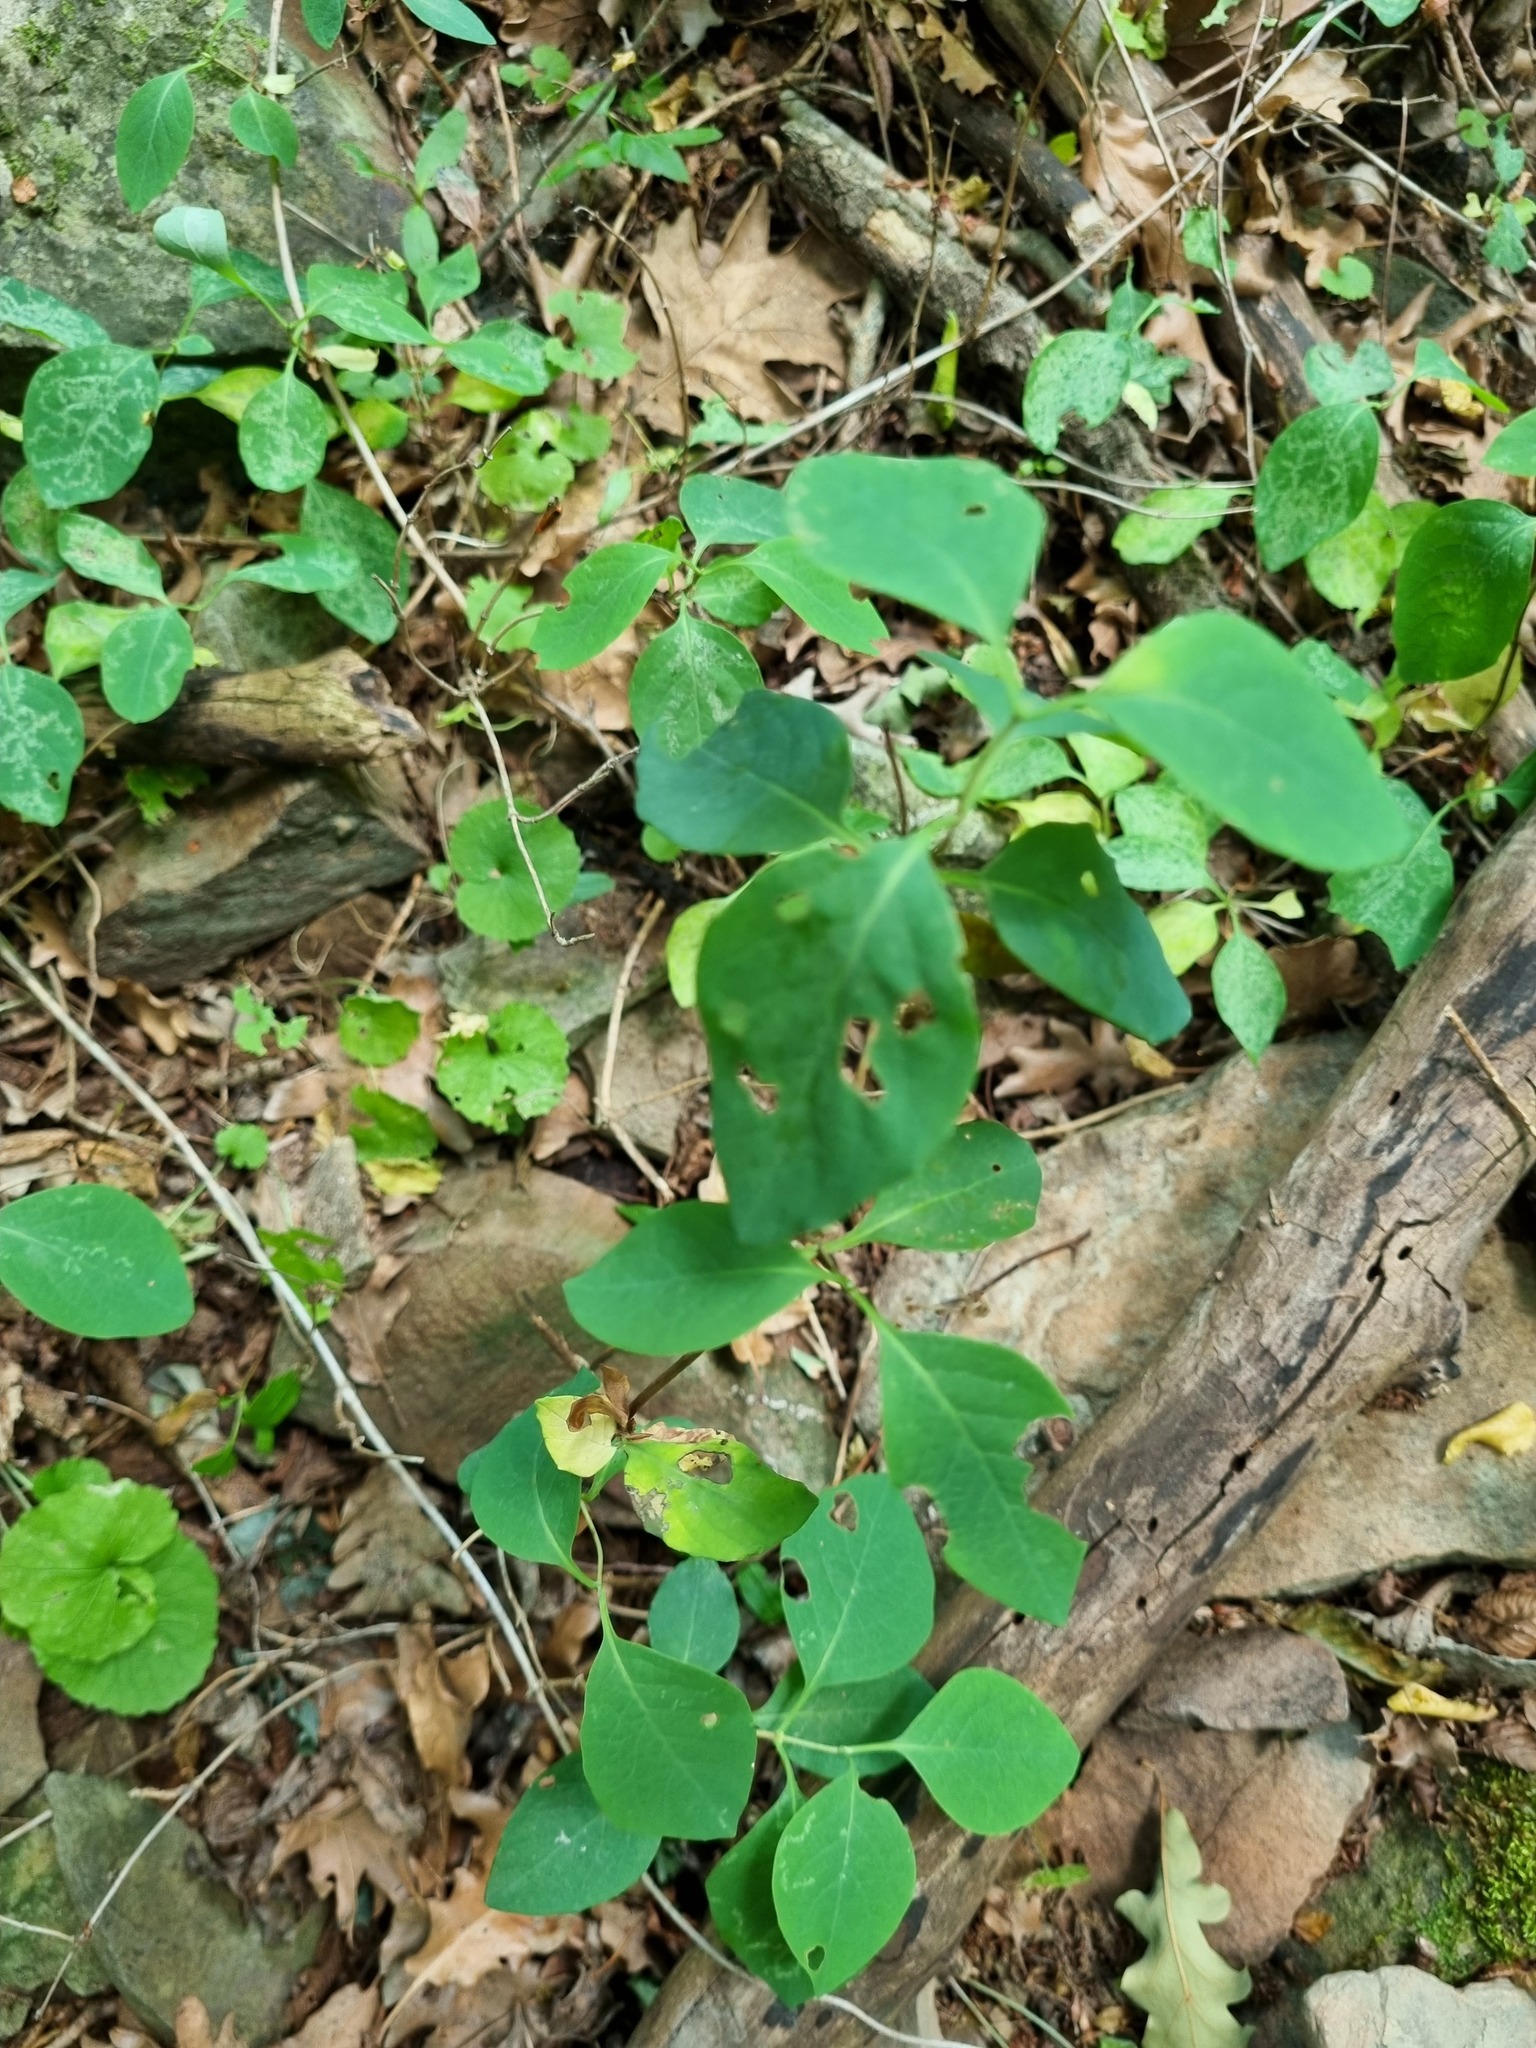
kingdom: Plantae
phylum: Tracheophyta
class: Magnoliopsida
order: Dipsacales
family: Caprifoliaceae
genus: Lonicera
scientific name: Lonicera caprifolium
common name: Perfoliate honeysuckle
